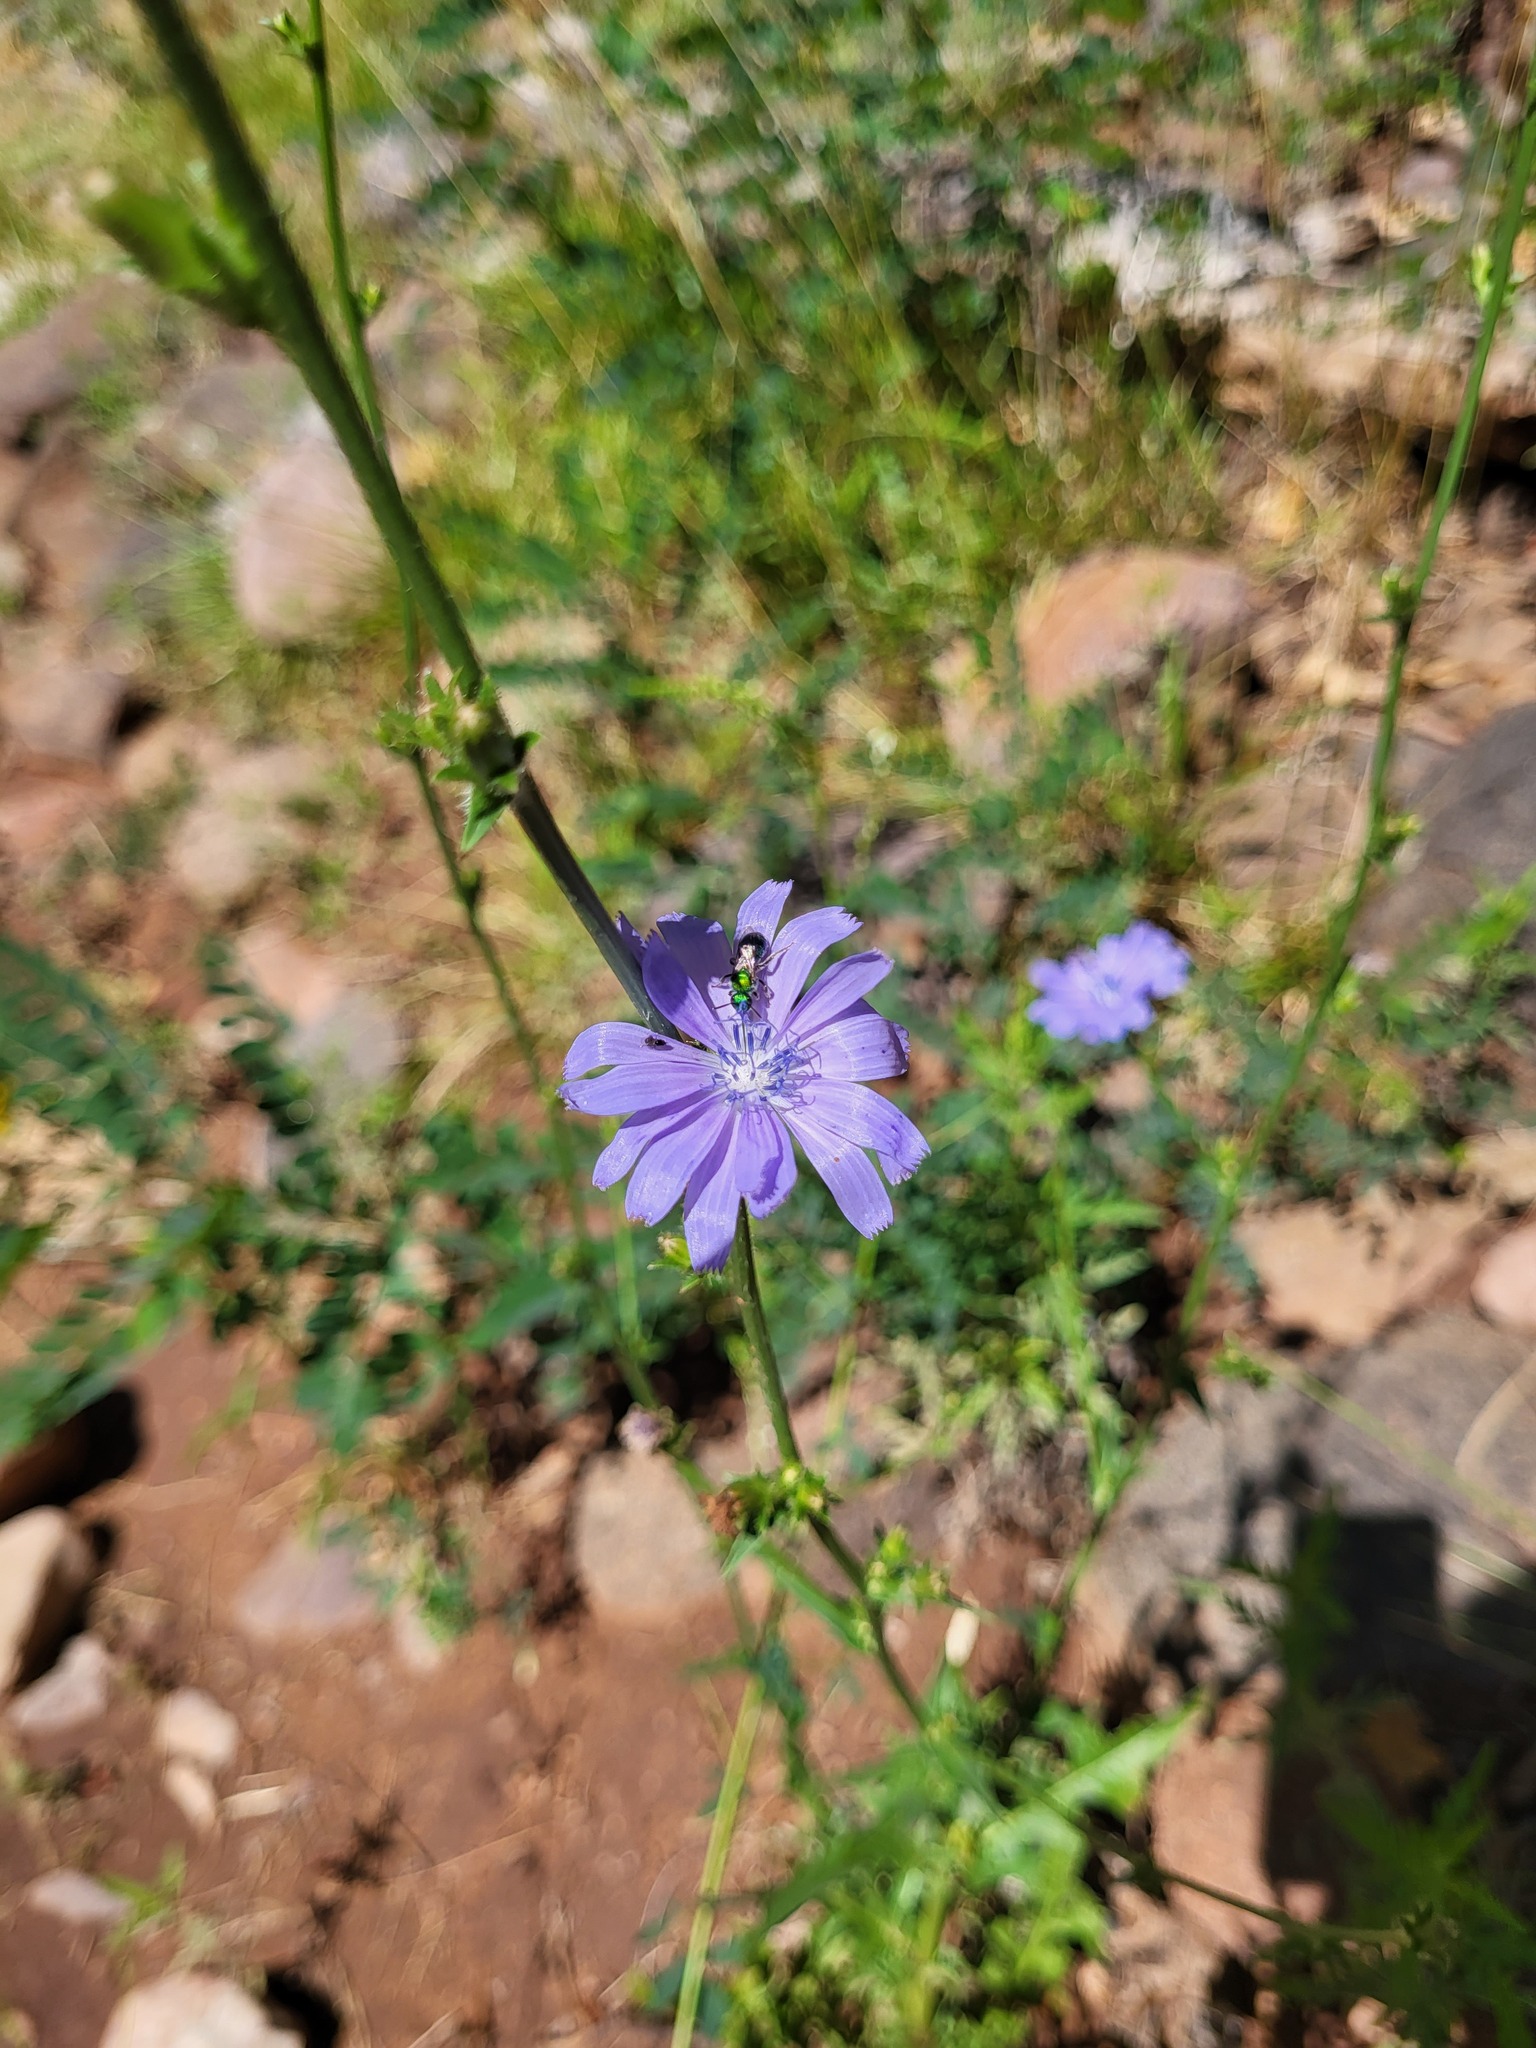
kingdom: Plantae
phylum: Tracheophyta
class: Magnoliopsida
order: Asterales
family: Asteraceae
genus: Cichorium
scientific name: Cichorium intybus
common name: Chicory
